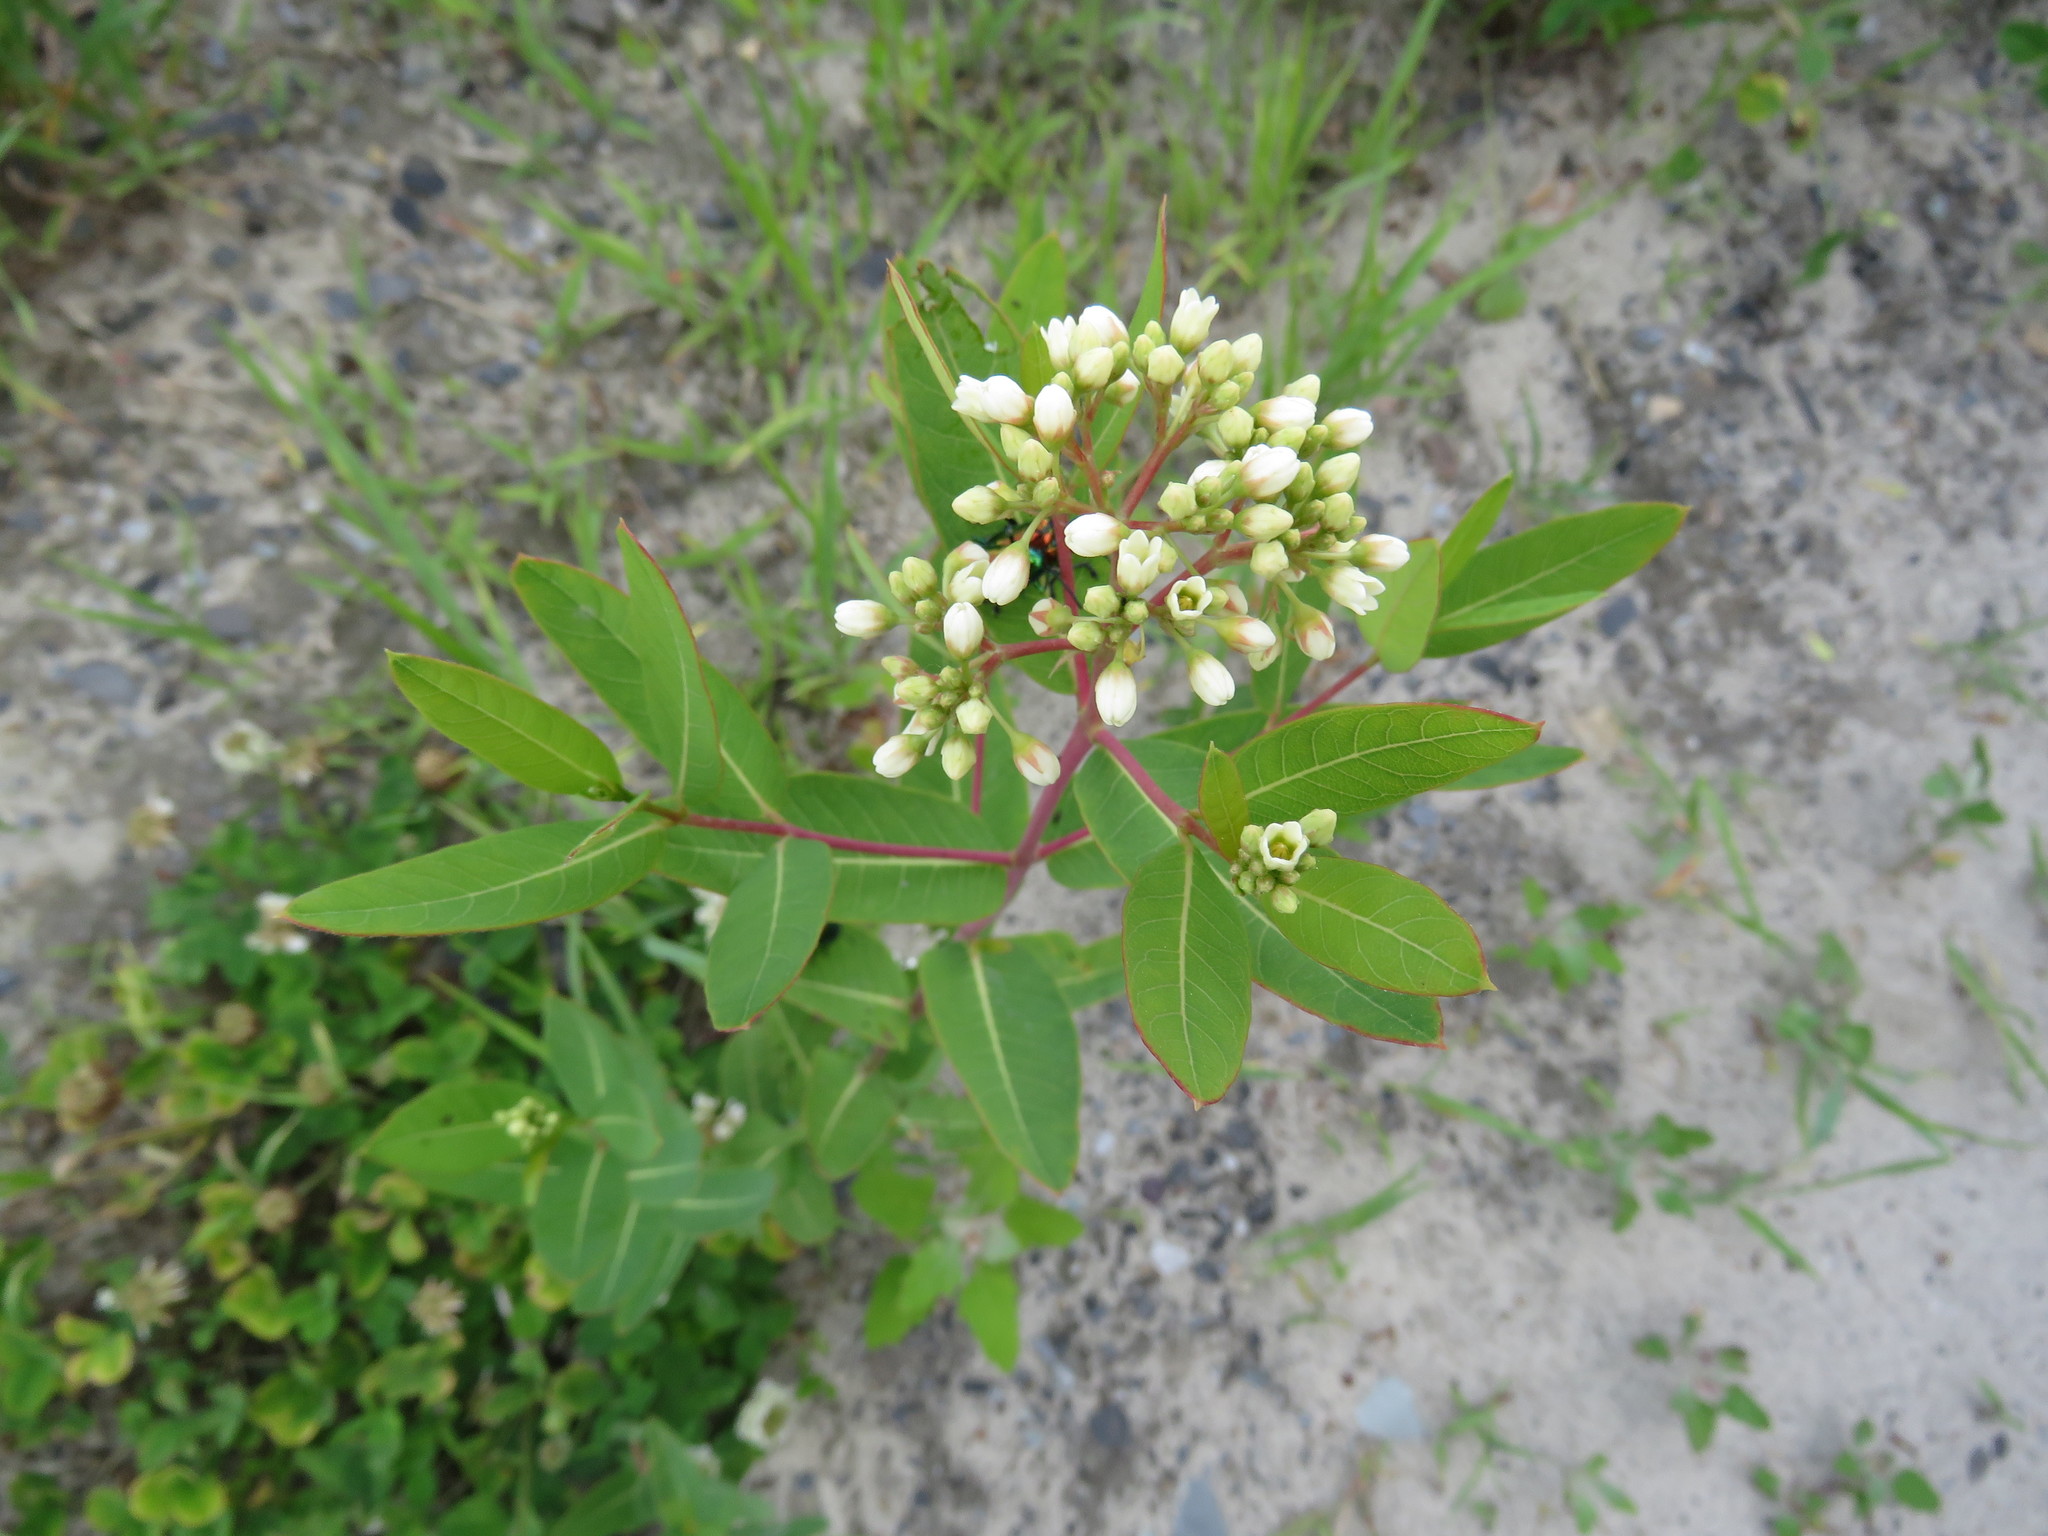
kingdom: Plantae
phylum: Tracheophyta
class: Magnoliopsida
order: Gentianales
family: Apocynaceae
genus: Apocynum
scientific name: Apocynum cannabinum
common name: Hemp dogbane
